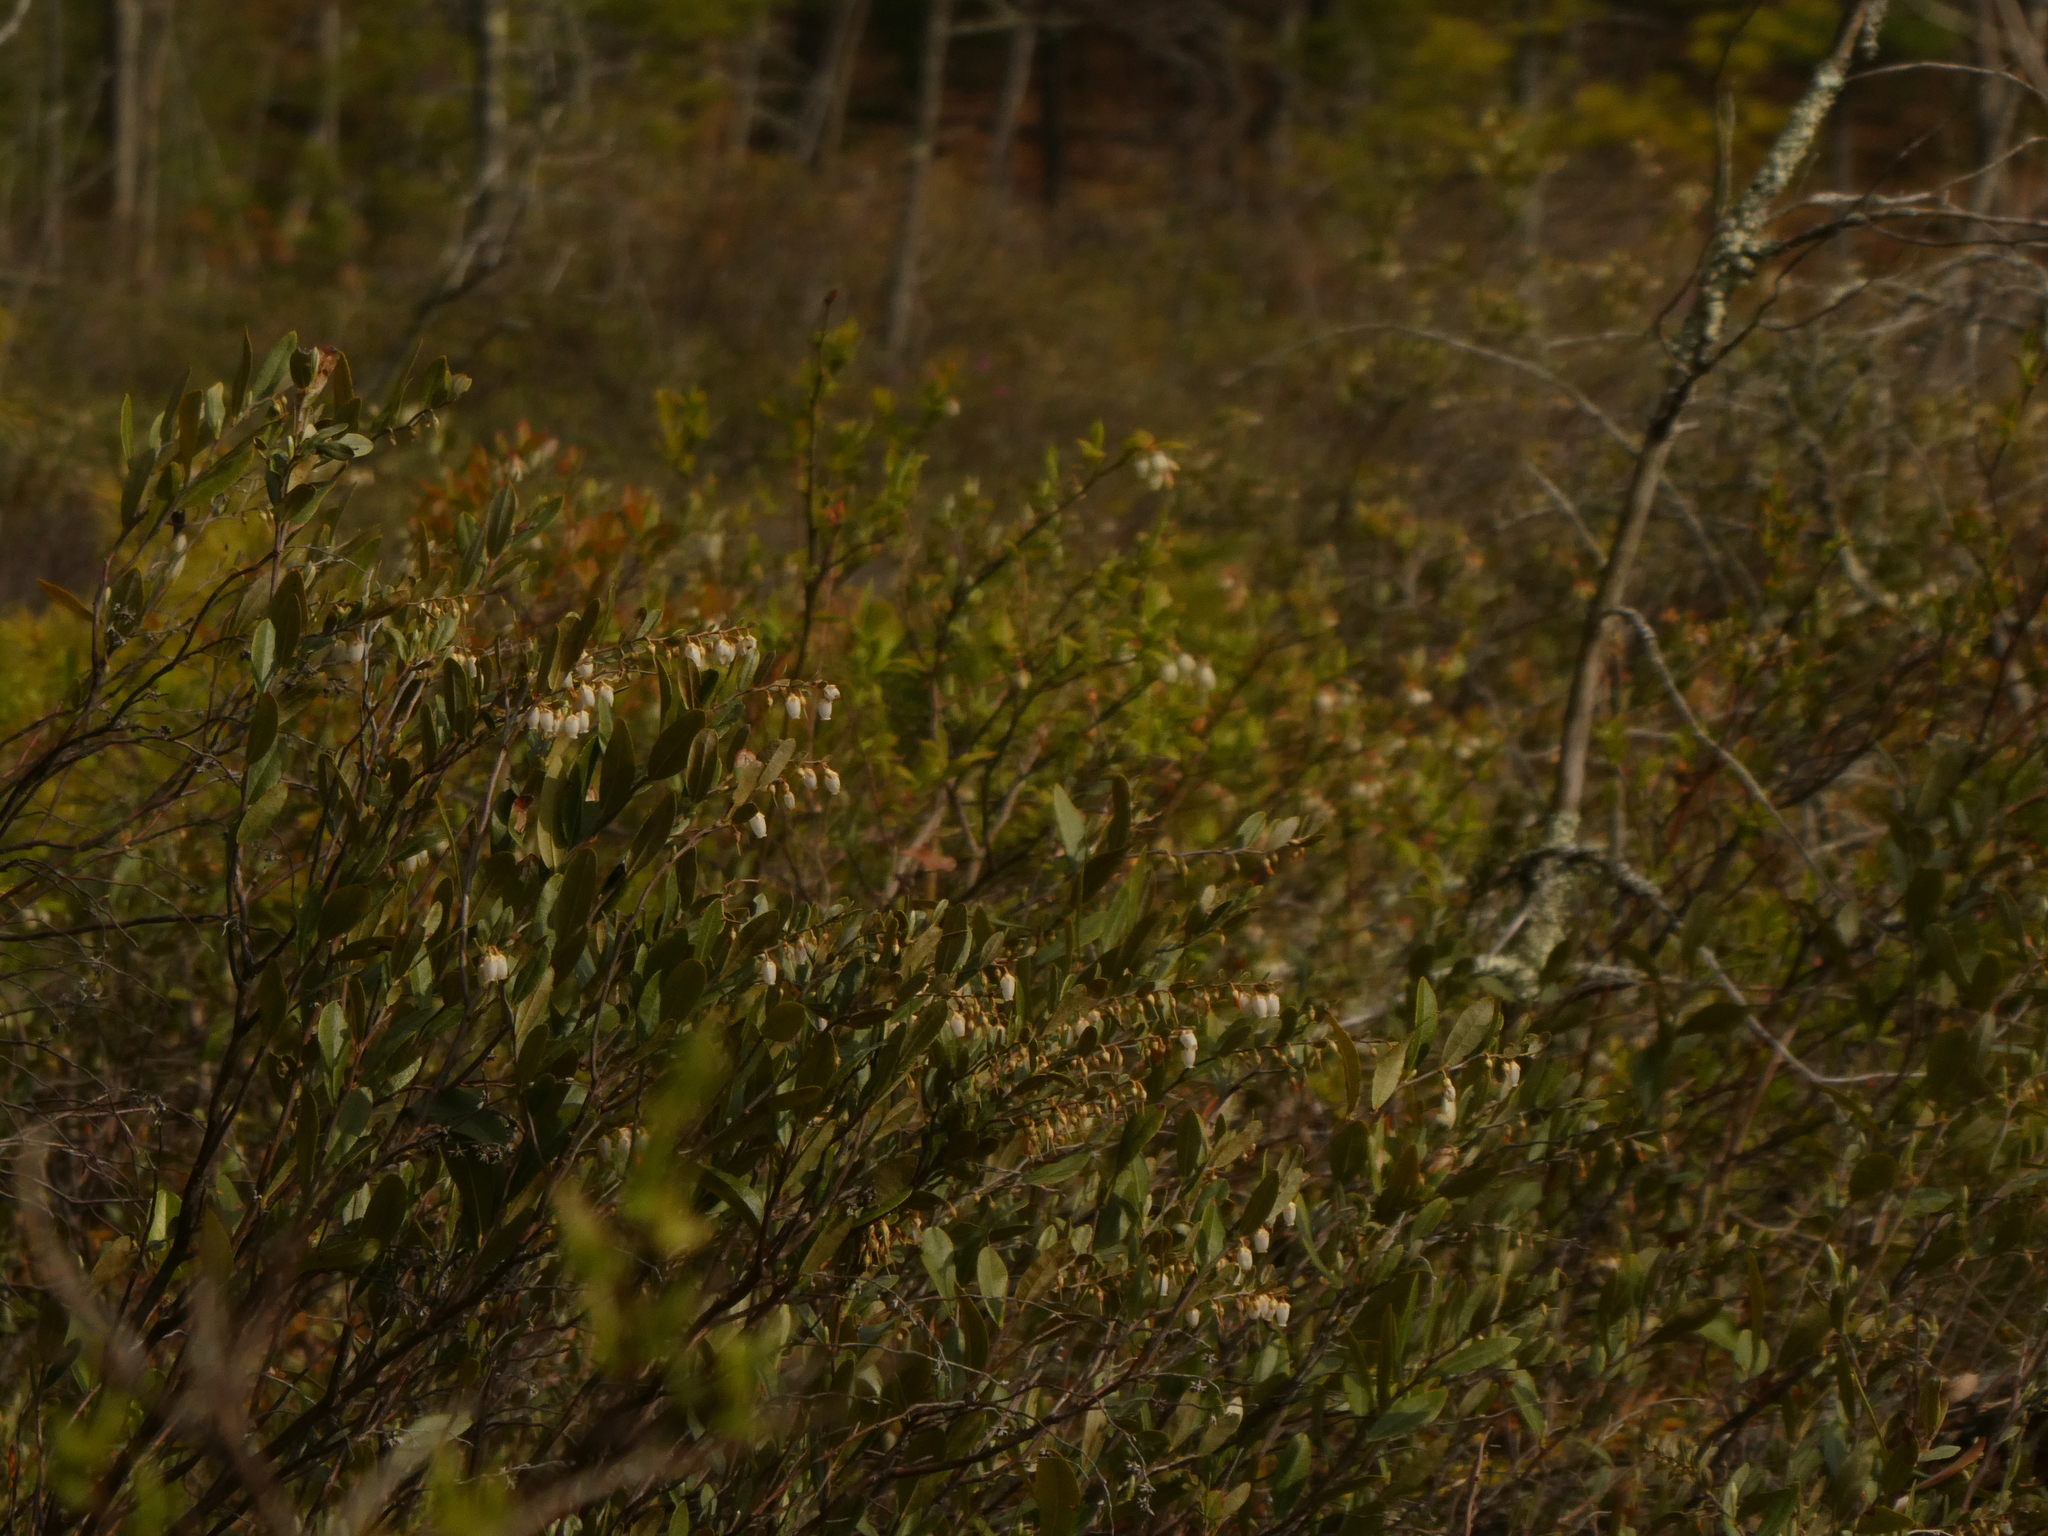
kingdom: Plantae
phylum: Tracheophyta
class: Magnoliopsida
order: Ericales
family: Ericaceae
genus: Chamaedaphne
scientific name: Chamaedaphne calyculata
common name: Leatherleaf
